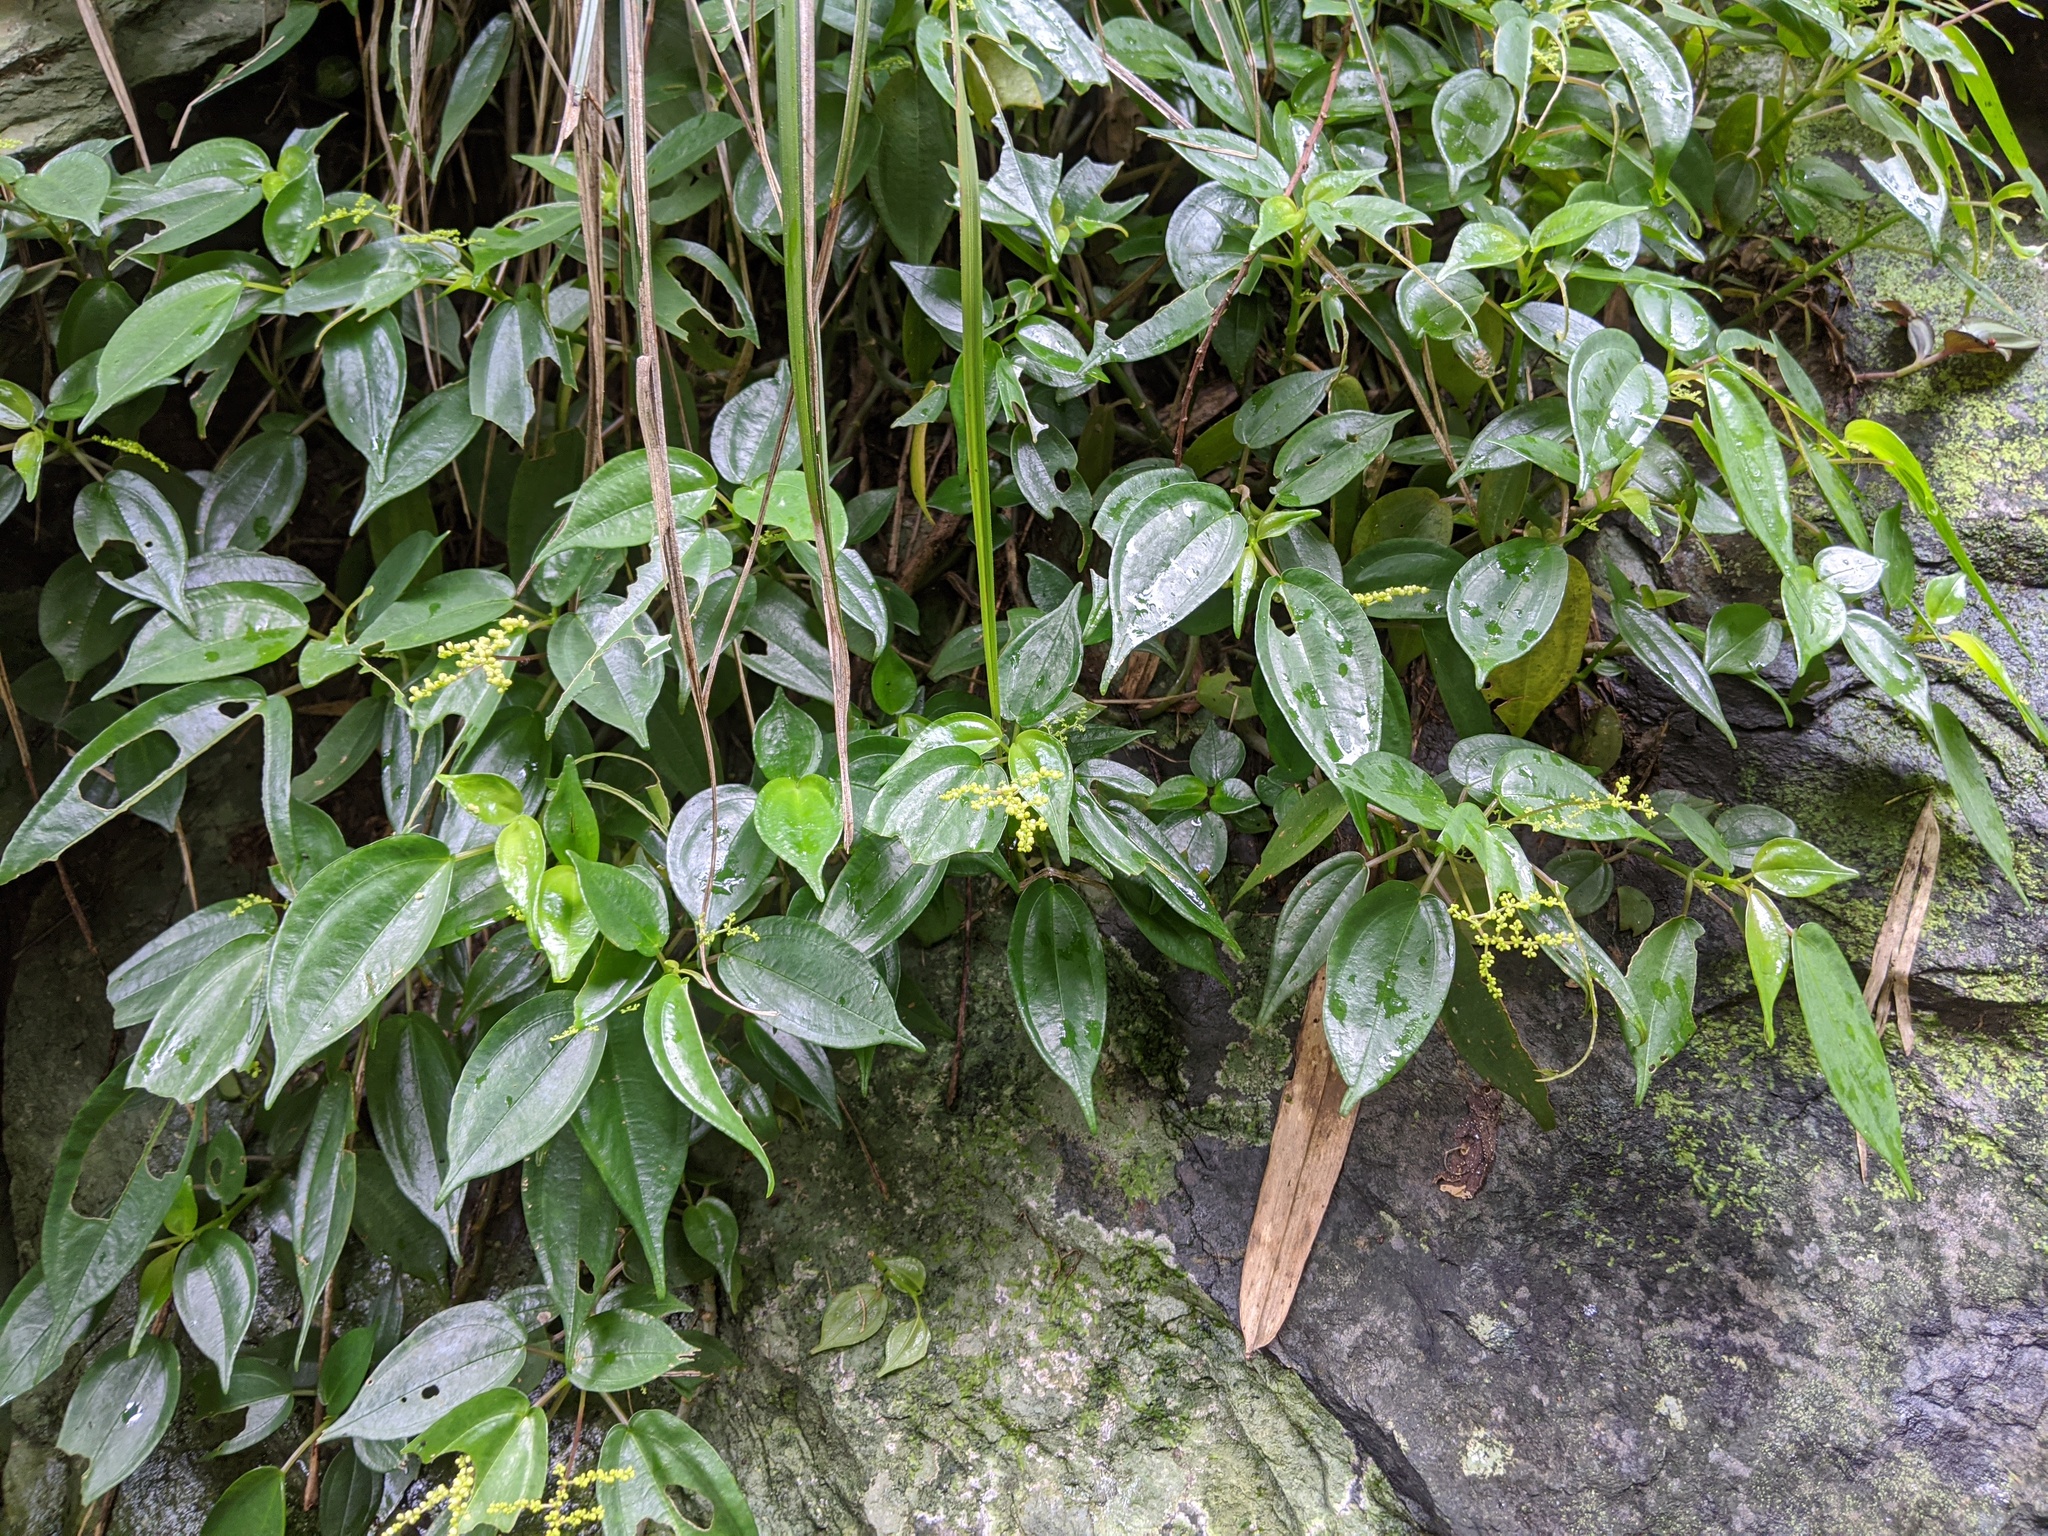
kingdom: Plantae
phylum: Tracheophyta
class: Magnoliopsida
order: Rosales
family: Urticaceae
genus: Pilea
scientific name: Pilea plataniflora
